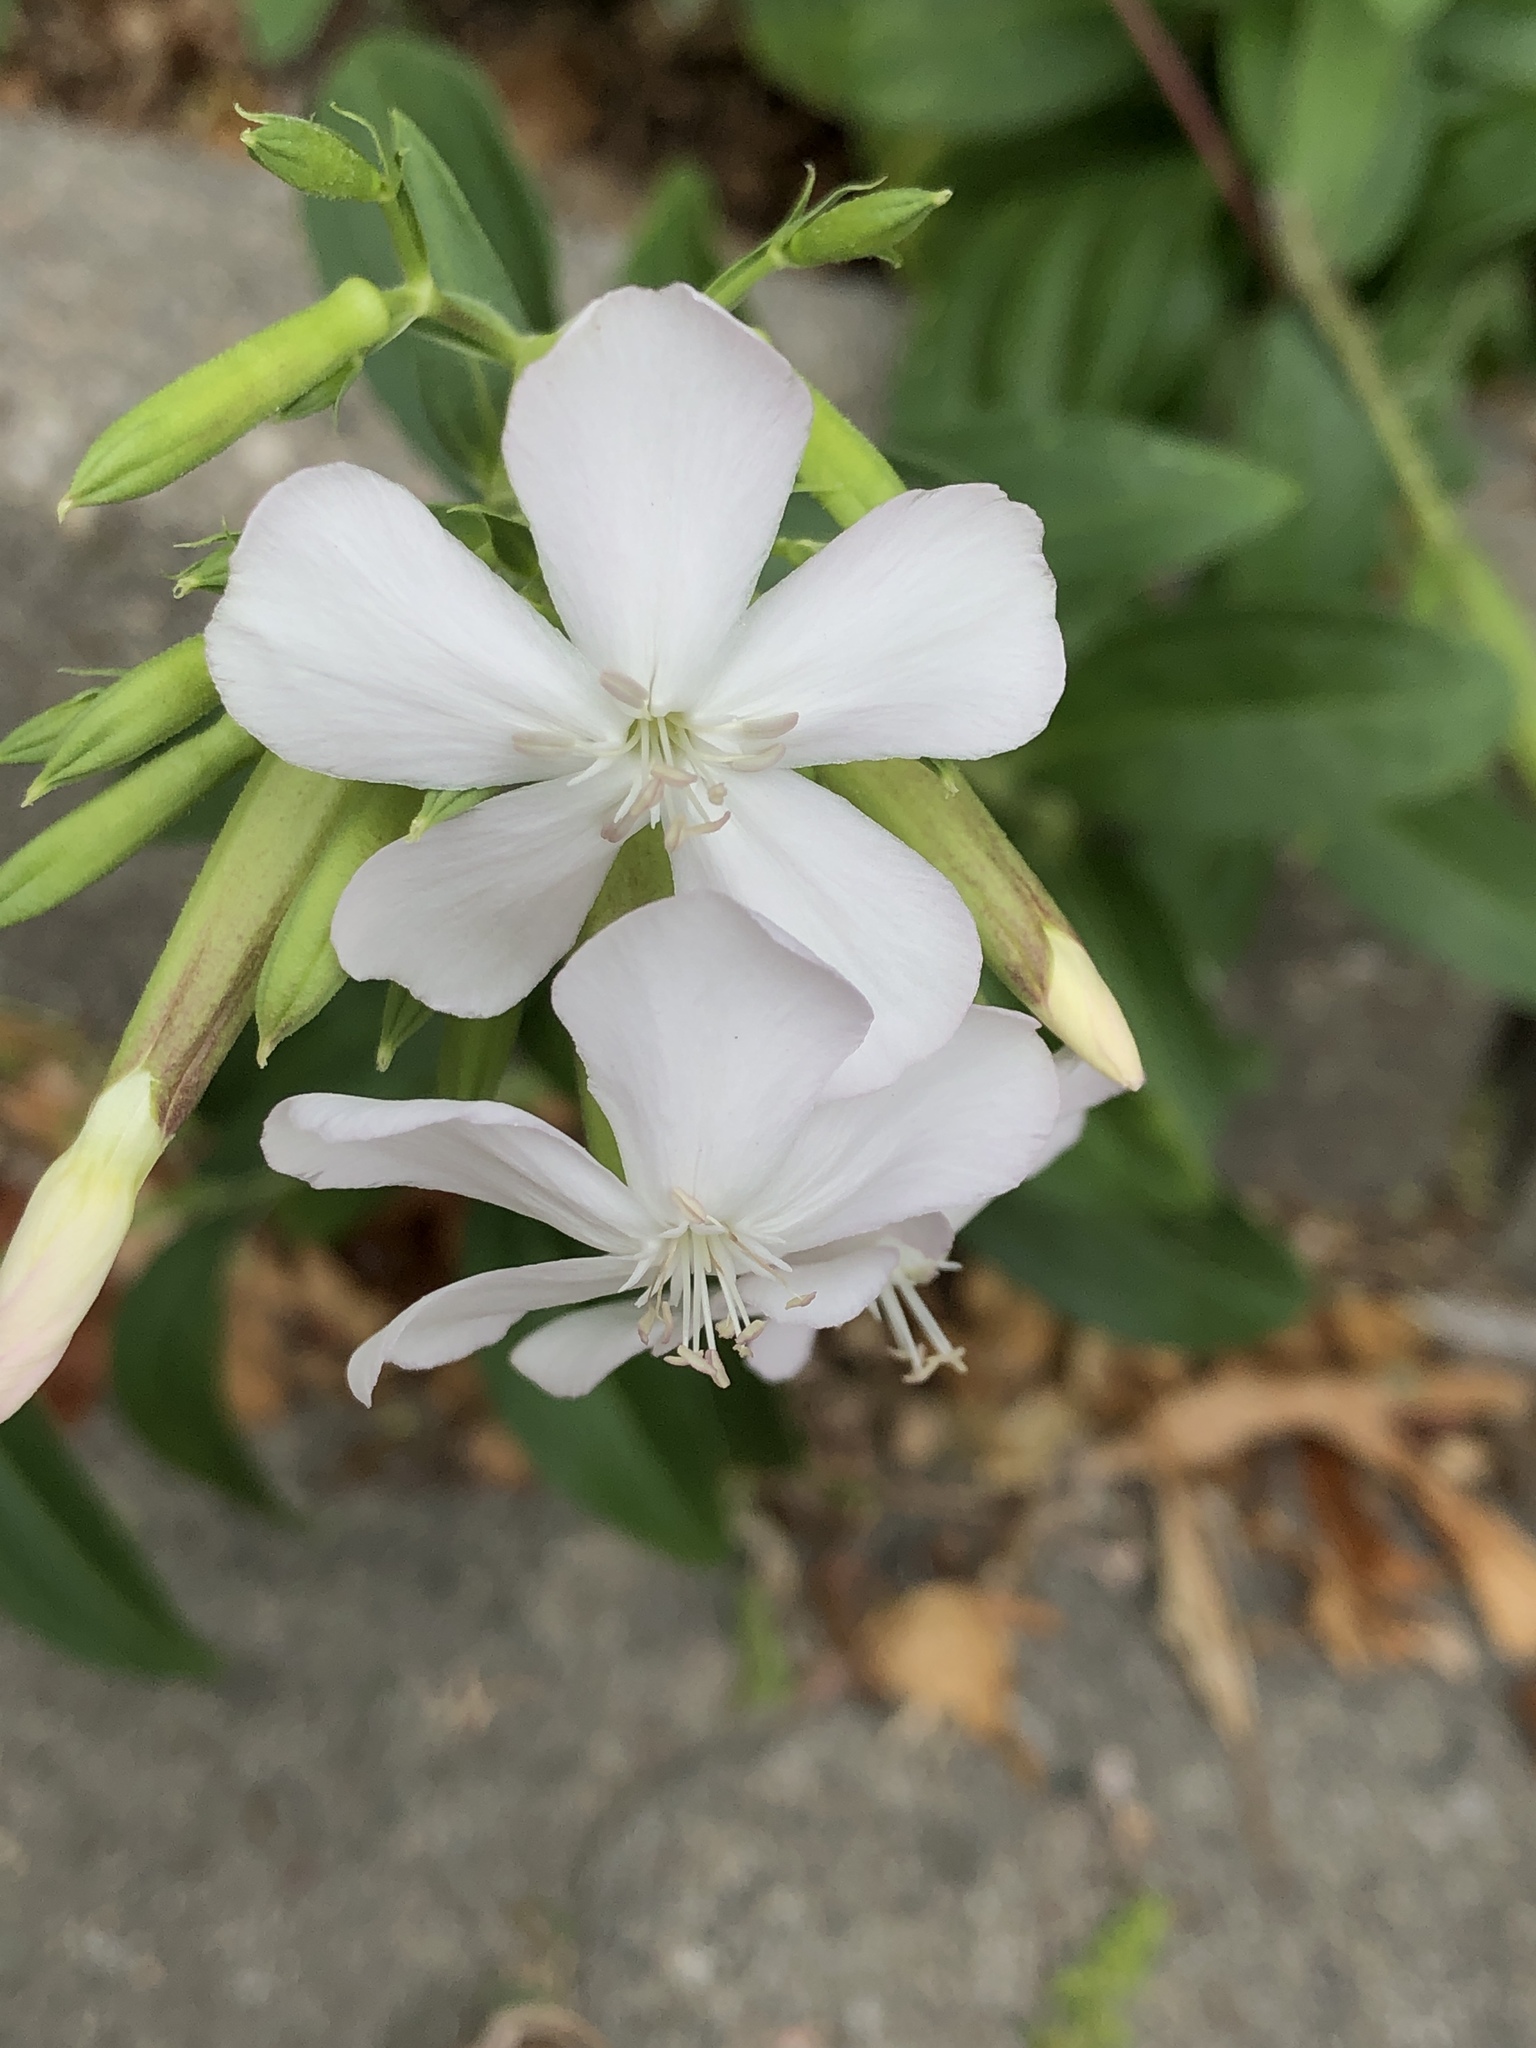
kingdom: Plantae
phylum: Tracheophyta
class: Magnoliopsida
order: Caryophyllales
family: Caryophyllaceae
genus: Saponaria
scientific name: Saponaria officinalis
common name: Soapwort
